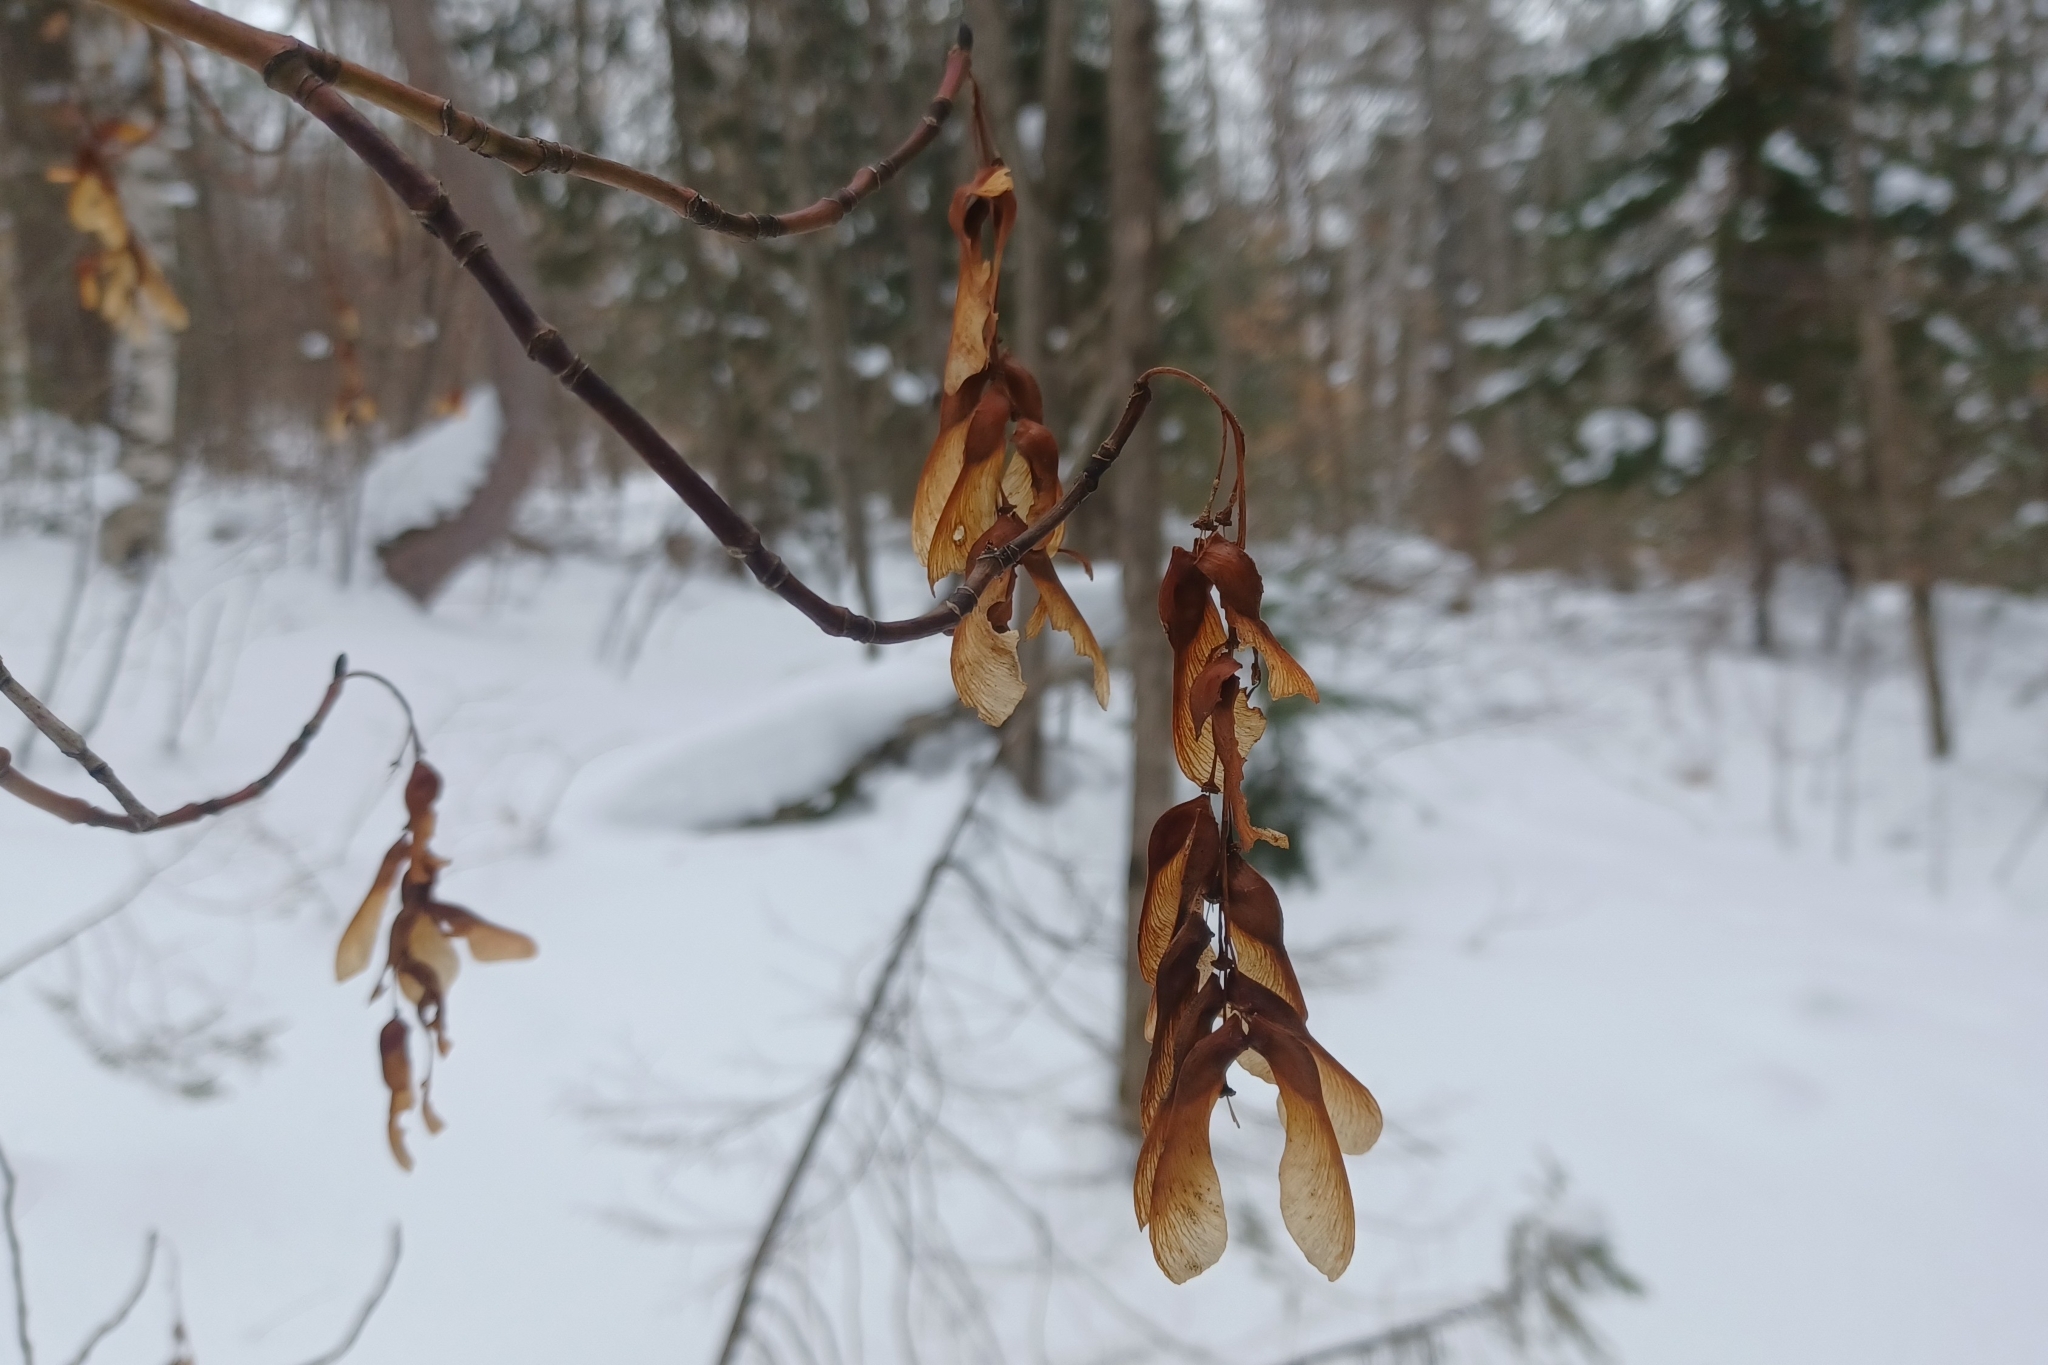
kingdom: Plantae
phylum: Tracheophyta
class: Magnoliopsida
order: Sapindales
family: Sapindaceae
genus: Acer
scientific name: Acer pensylvanicum
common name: Moosewood
